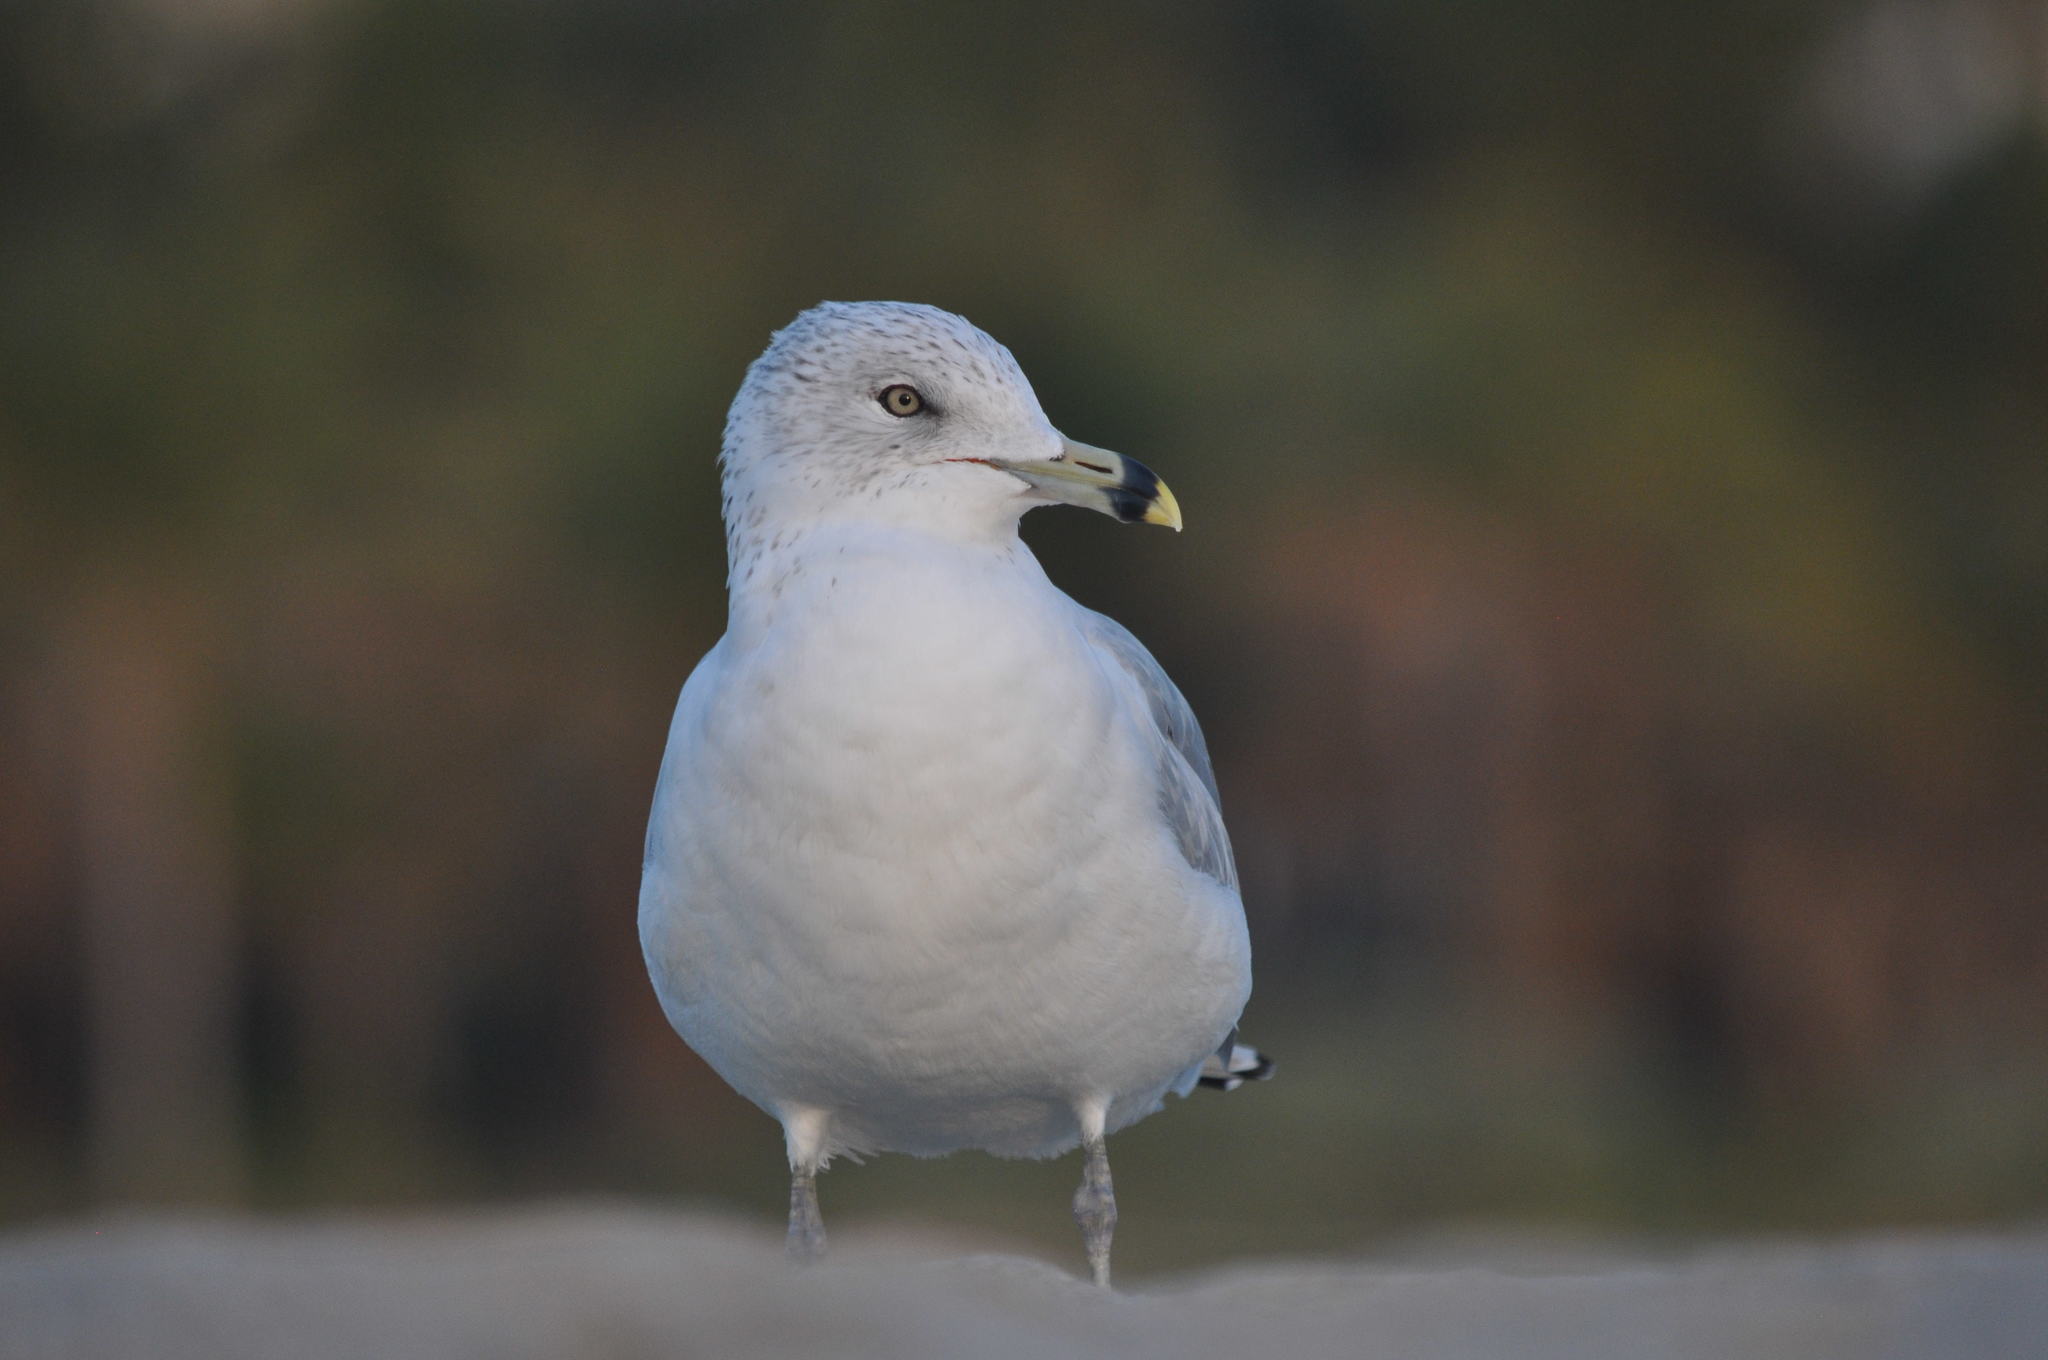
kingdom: Animalia
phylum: Chordata
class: Aves
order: Charadriiformes
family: Laridae
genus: Larus
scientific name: Larus delawarensis
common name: Ring-billed gull
